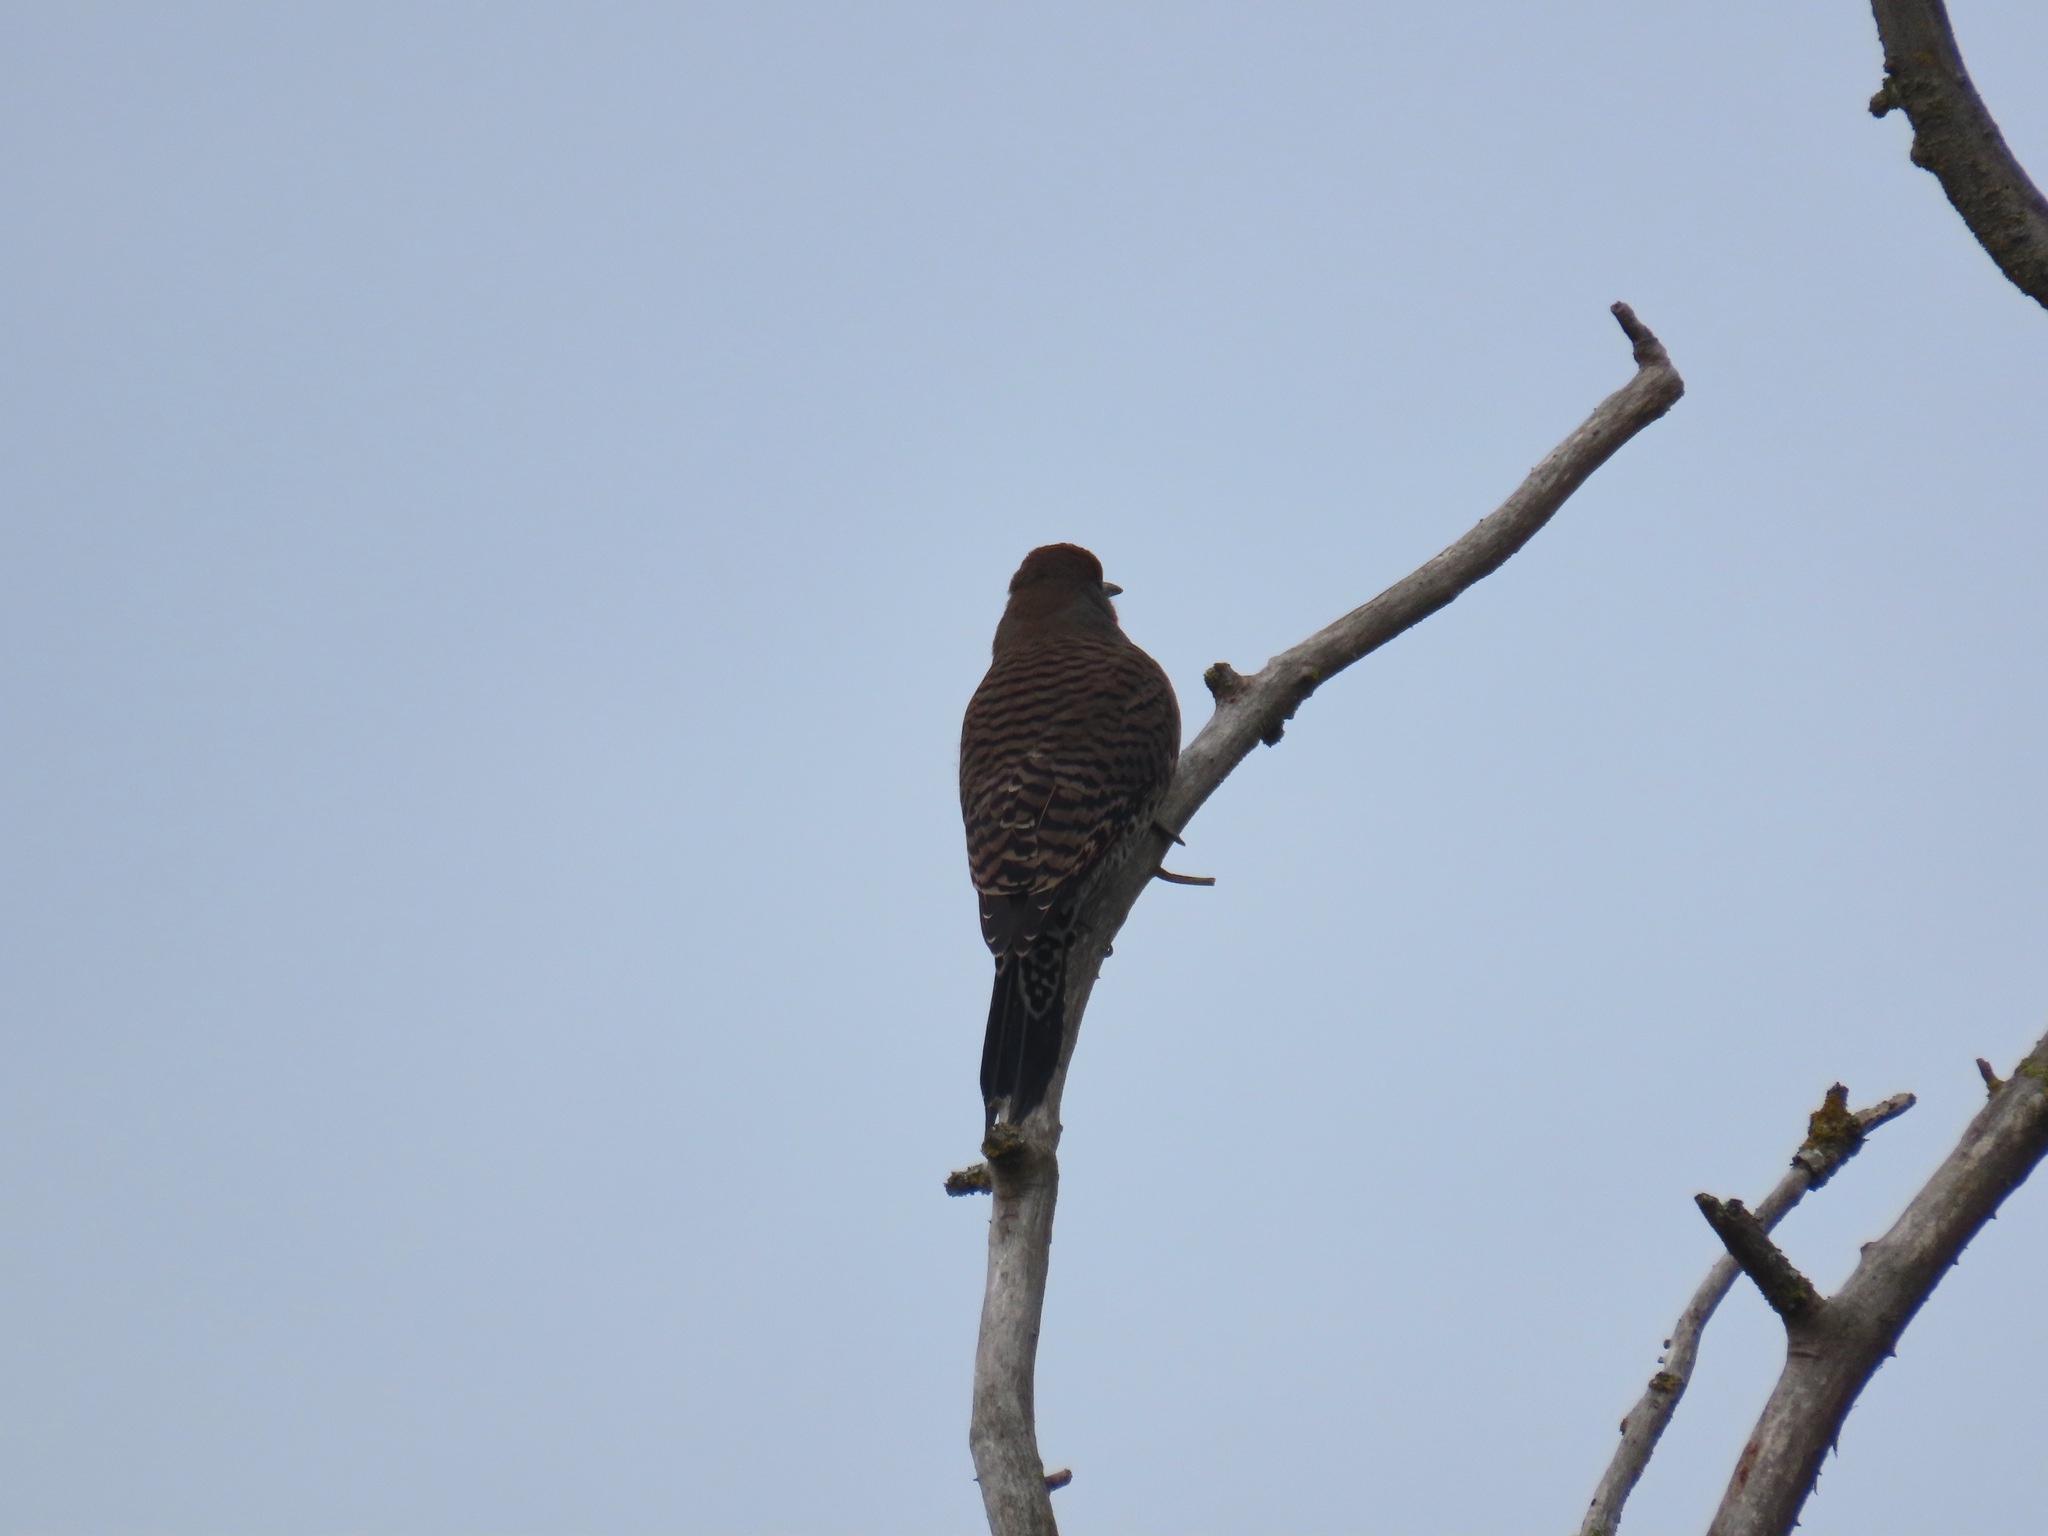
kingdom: Animalia
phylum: Chordata
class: Aves
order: Piciformes
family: Picidae
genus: Colaptes
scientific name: Colaptes auratus
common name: Northern flicker
